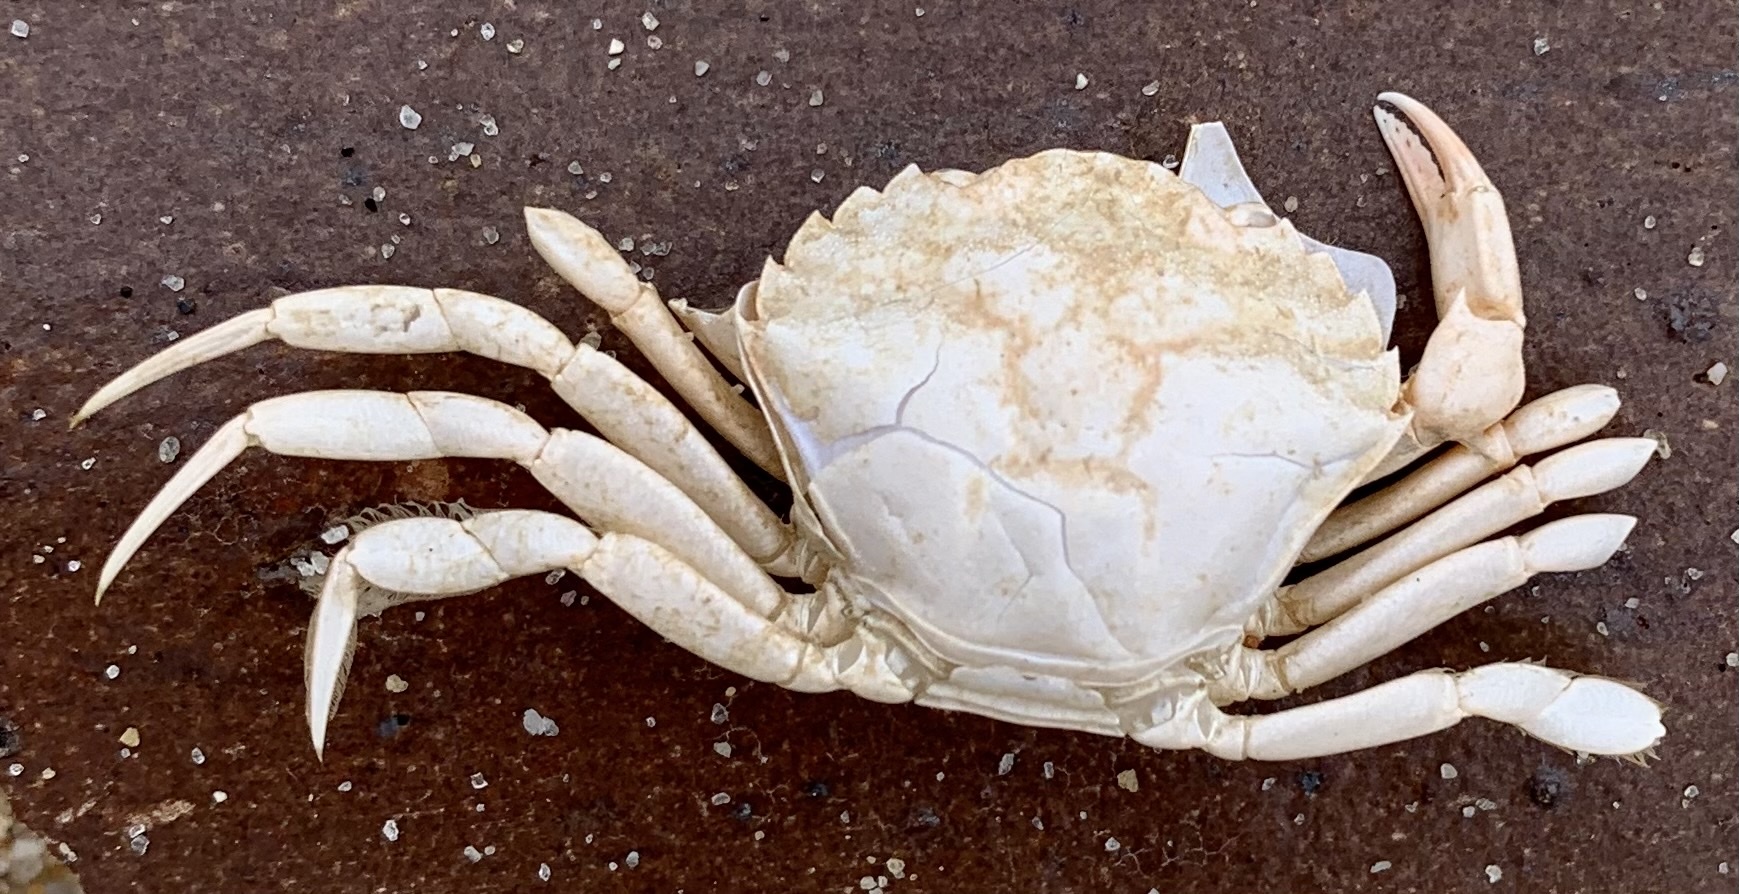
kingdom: Animalia
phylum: Arthropoda
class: Malacostraca
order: Decapoda
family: Carcinidae
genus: Carcinus
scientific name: Carcinus maenas
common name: European green crab
